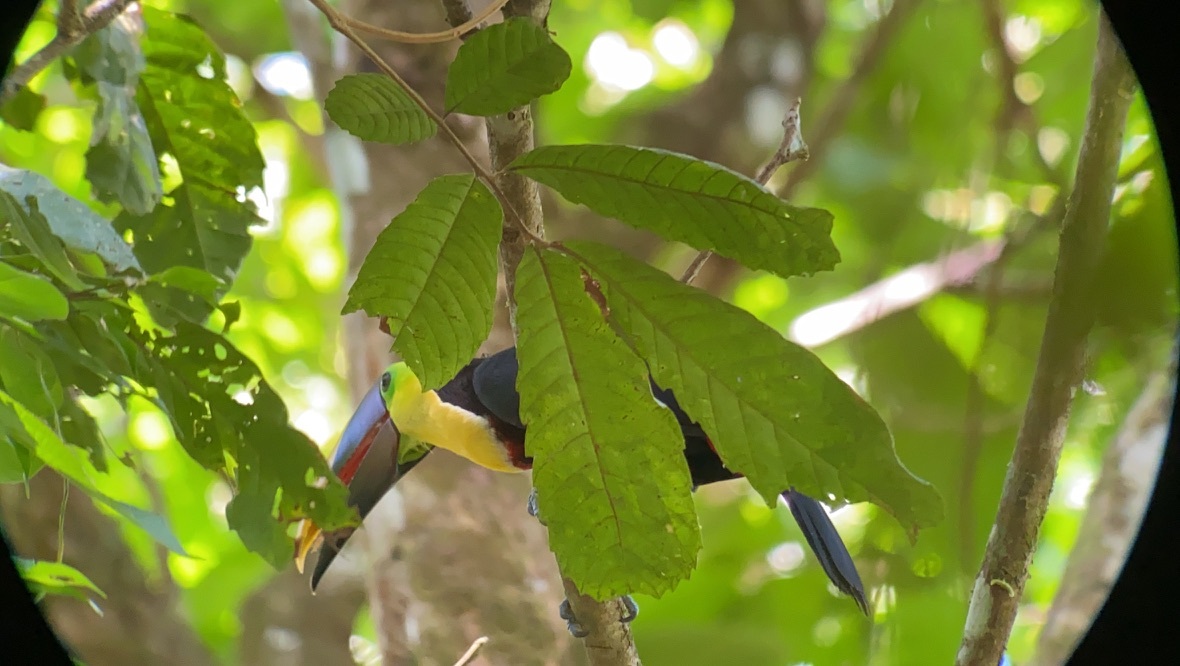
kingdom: Animalia
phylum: Chordata
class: Aves
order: Piciformes
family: Ramphastidae
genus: Ramphastos
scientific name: Ramphastos ambiguus
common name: Yellow-throated toucan
